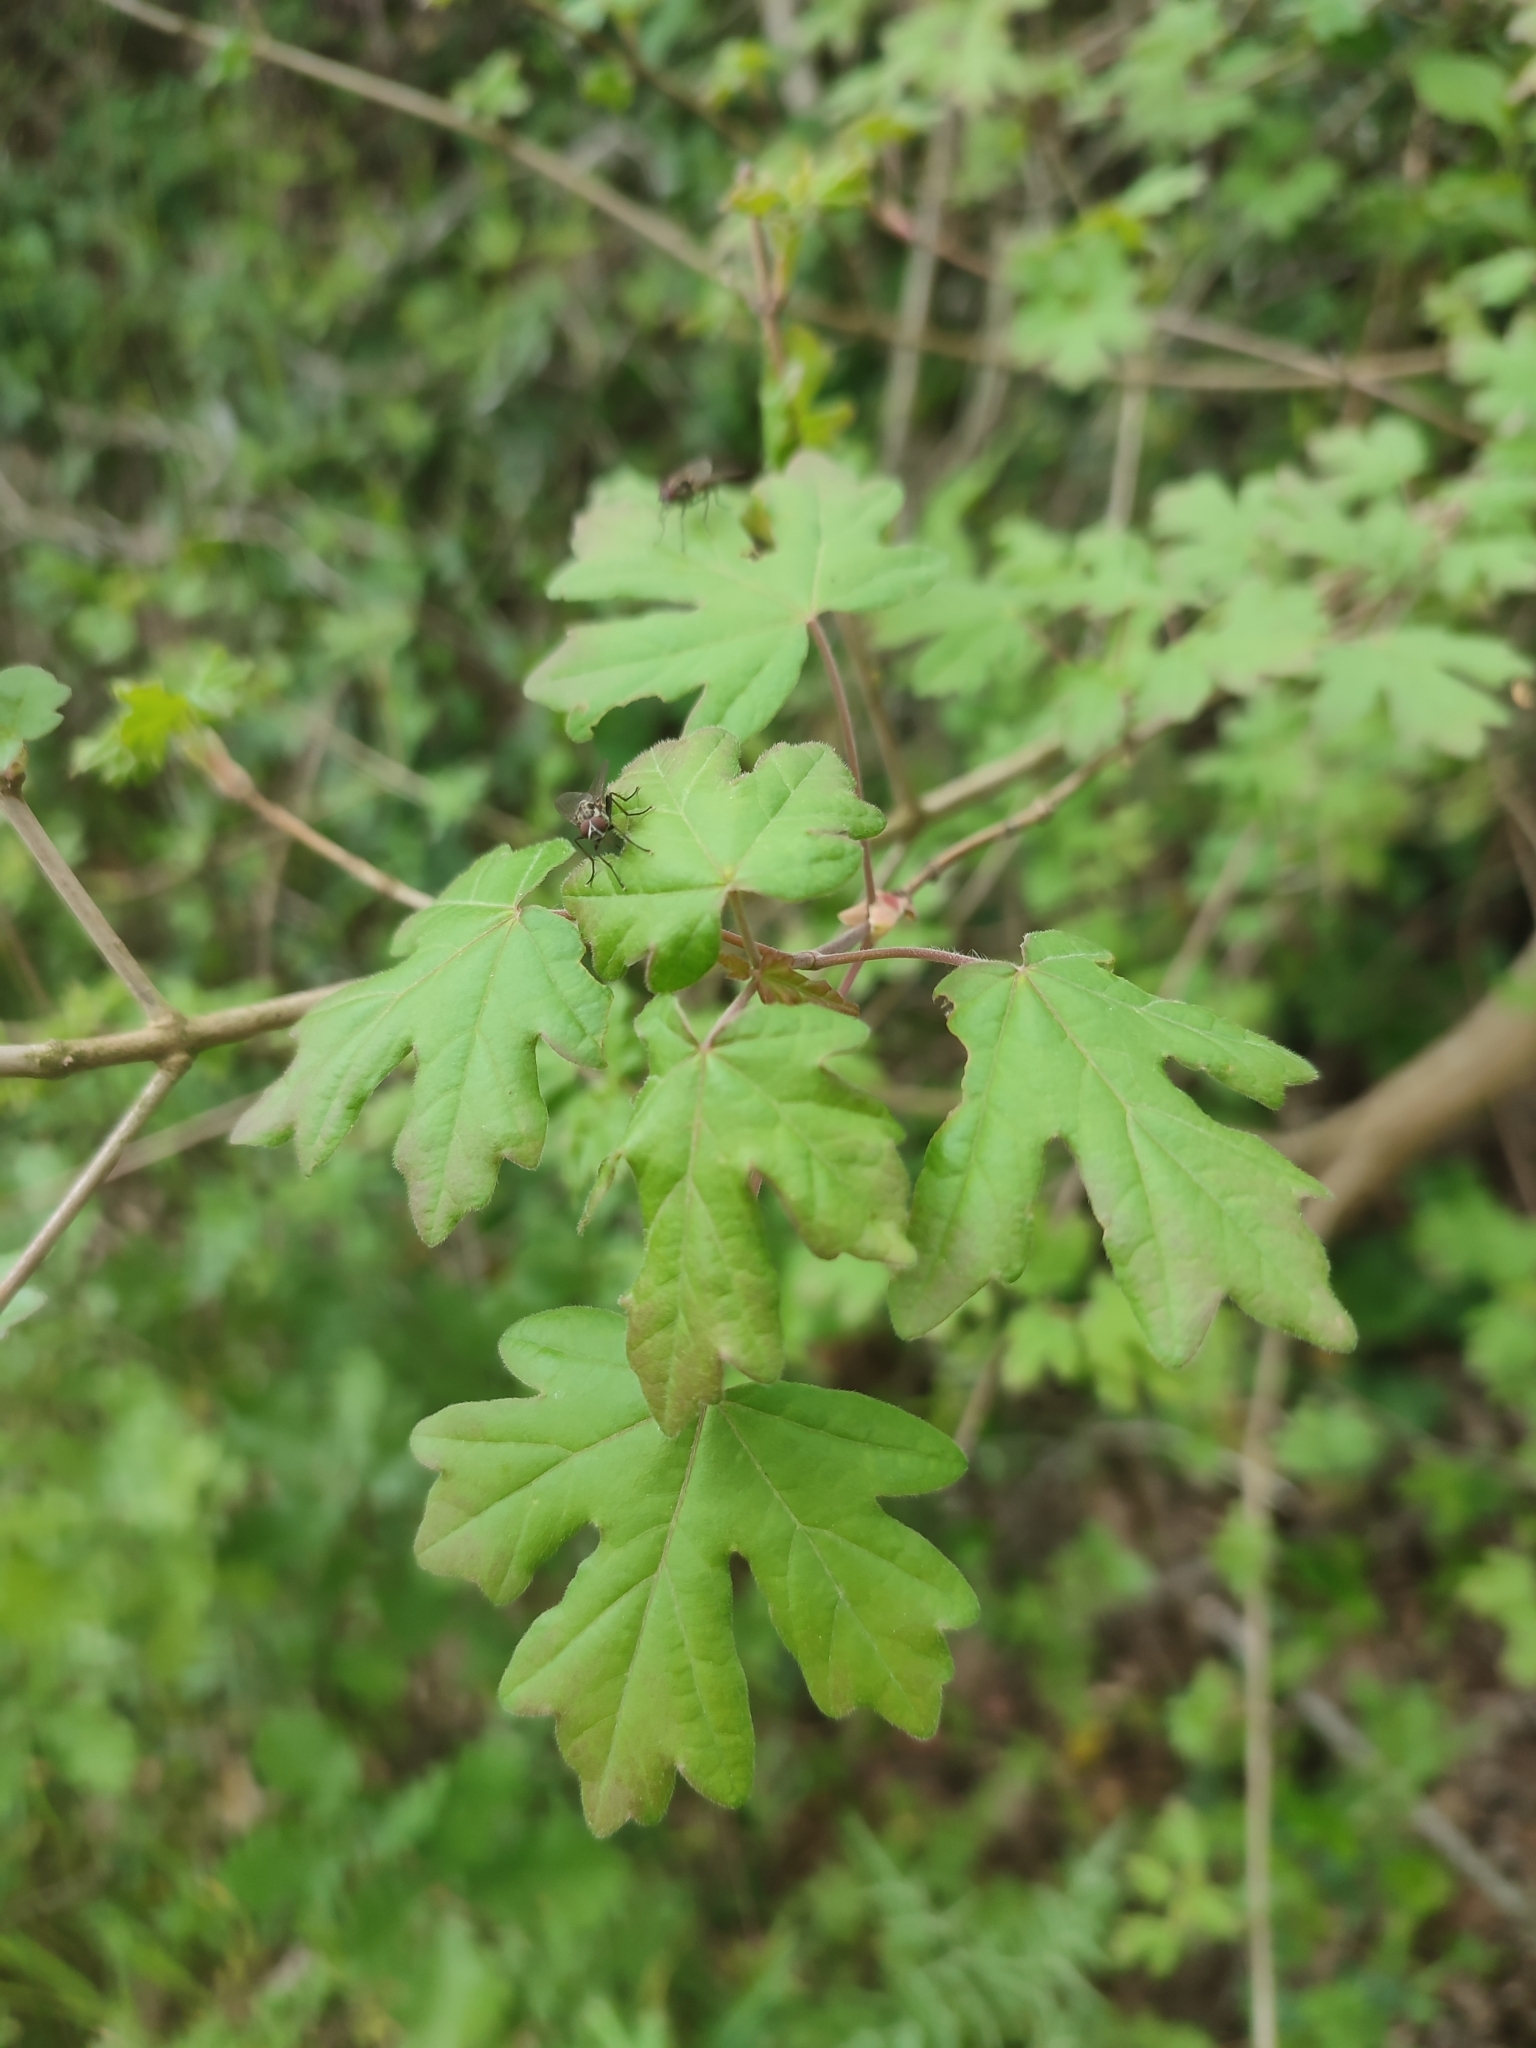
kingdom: Plantae
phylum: Tracheophyta
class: Magnoliopsida
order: Sapindales
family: Sapindaceae
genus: Acer
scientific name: Acer campestre
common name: Field maple
